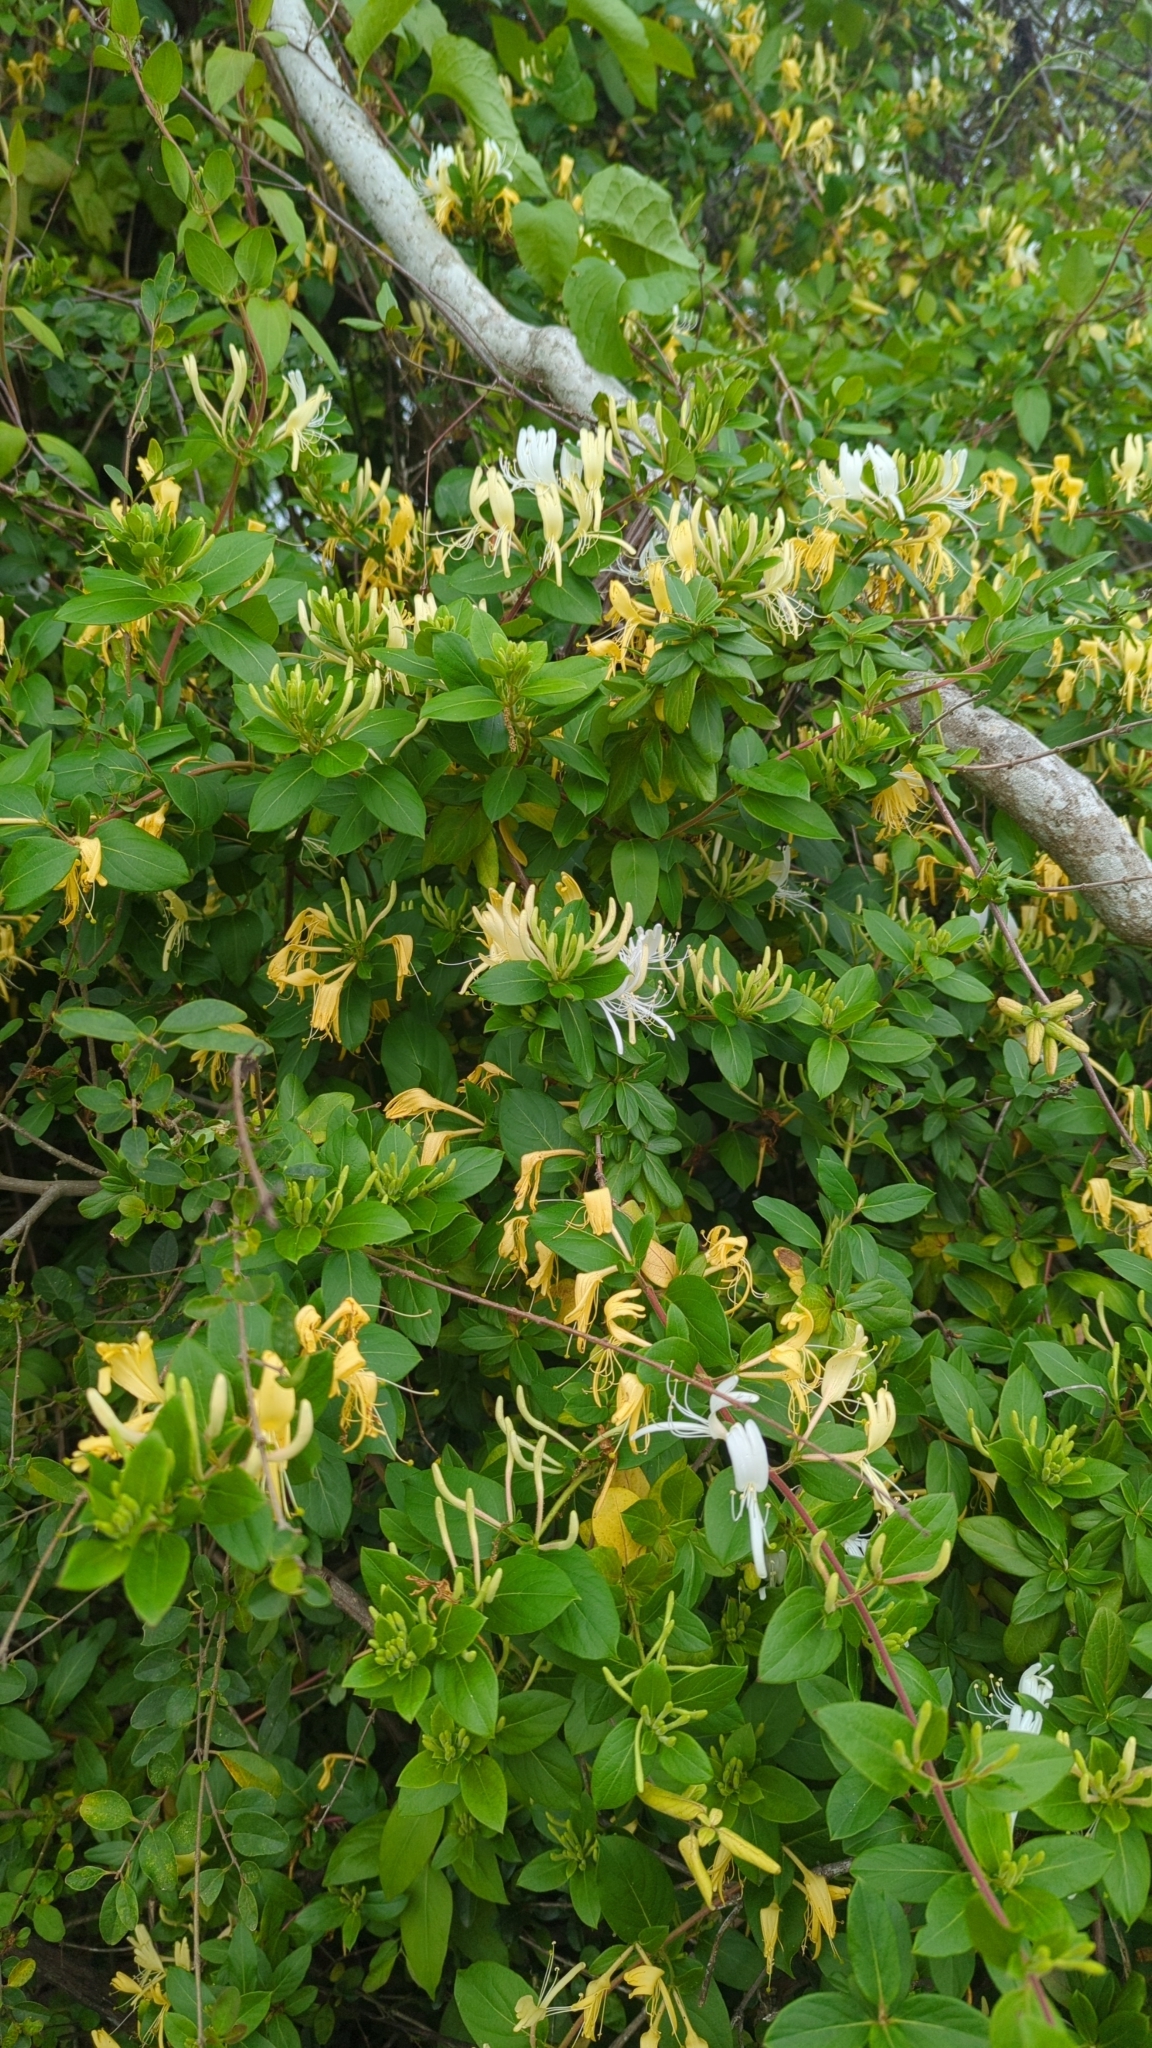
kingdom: Plantae
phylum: Tracheophyta
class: Magnoliopsida
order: Dipsacales
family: Caprifoliaceae
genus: Lonicera
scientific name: Lonicera japonica
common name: Japanese honeysuckle
